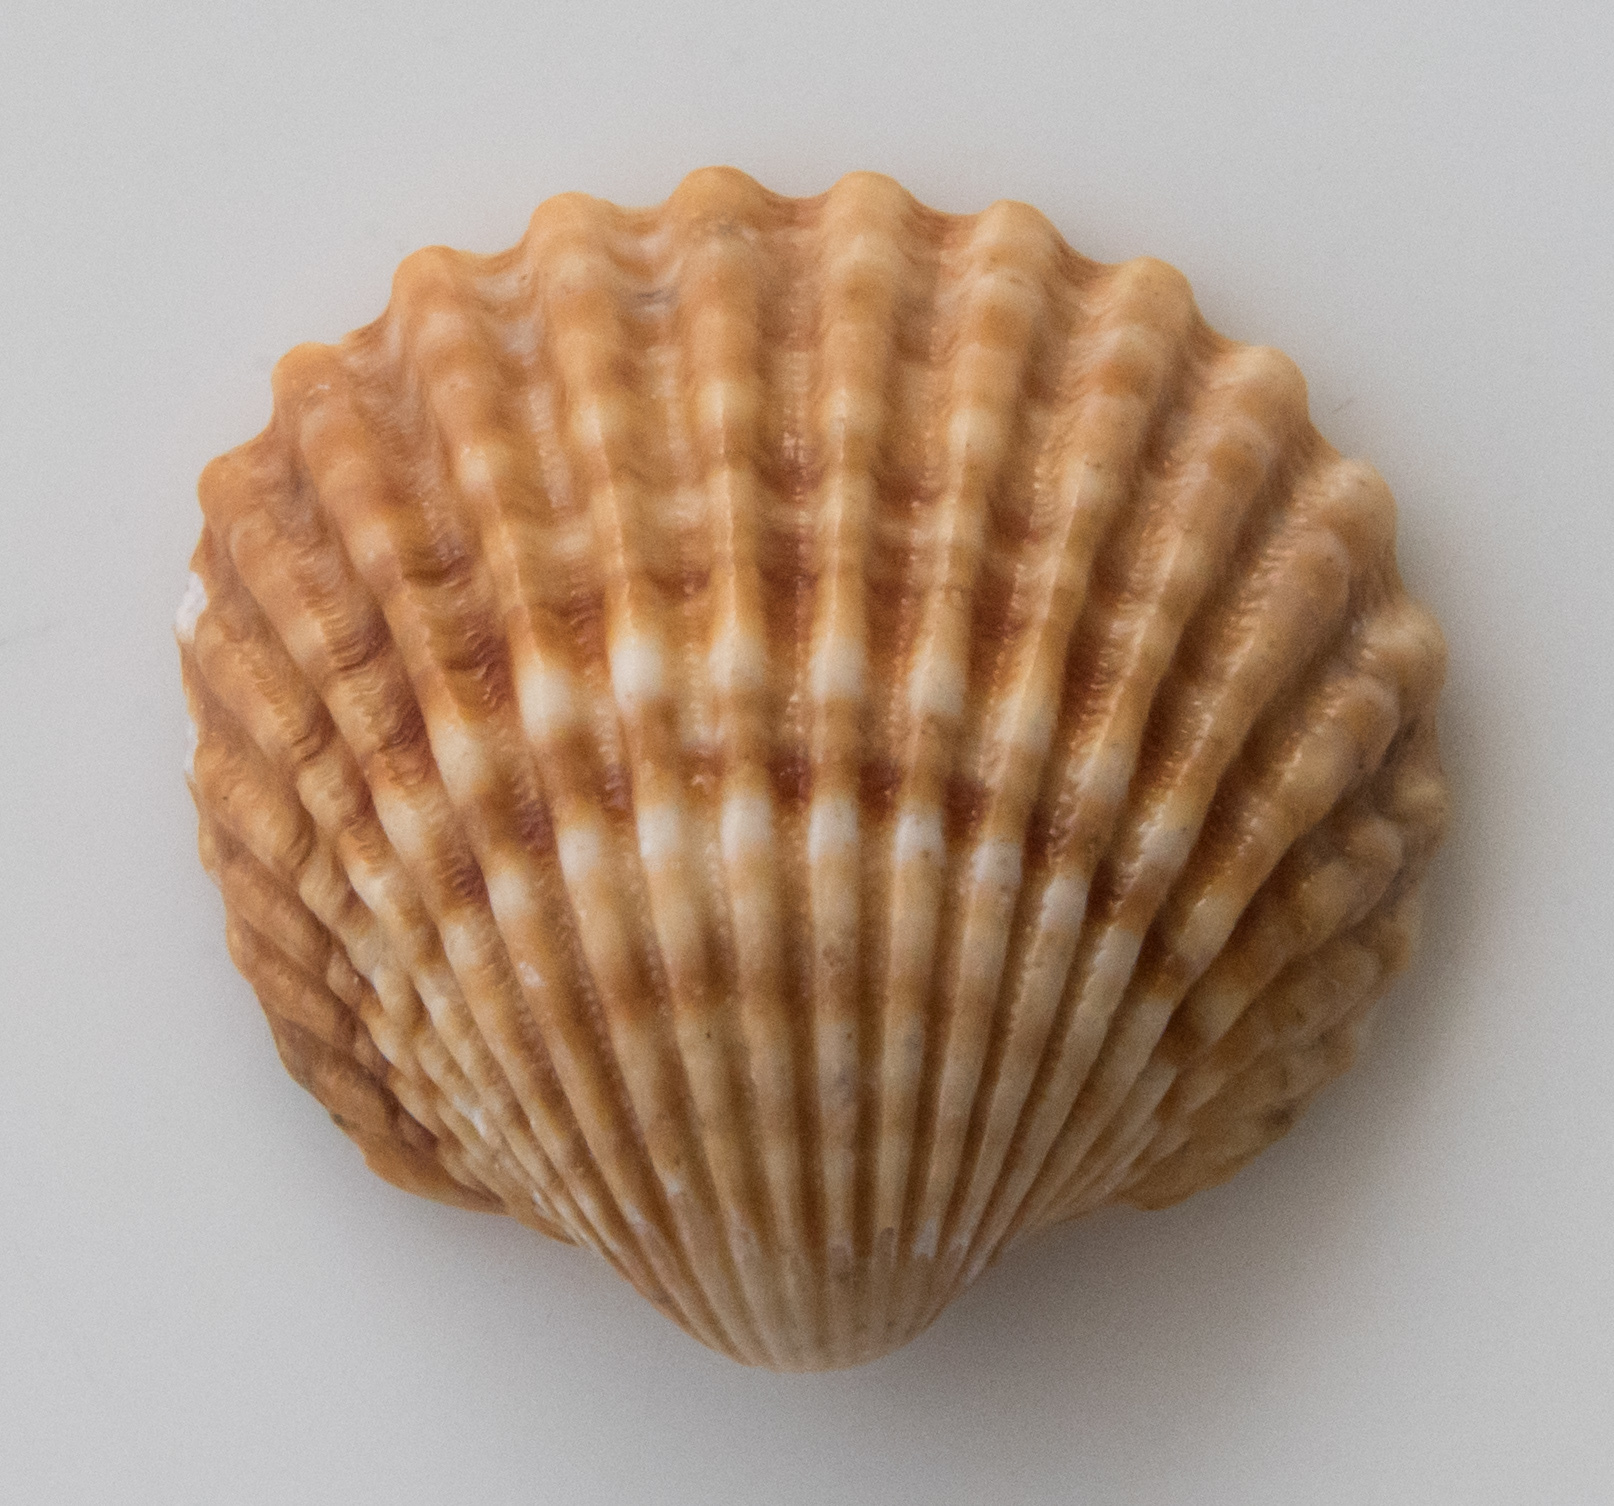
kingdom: Animalia
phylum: Mollusca
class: Bivalvia
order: Cardiida
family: Cardiidae
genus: Acanthocardia
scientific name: Acanthocardia tuberculata
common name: Rough cockle
